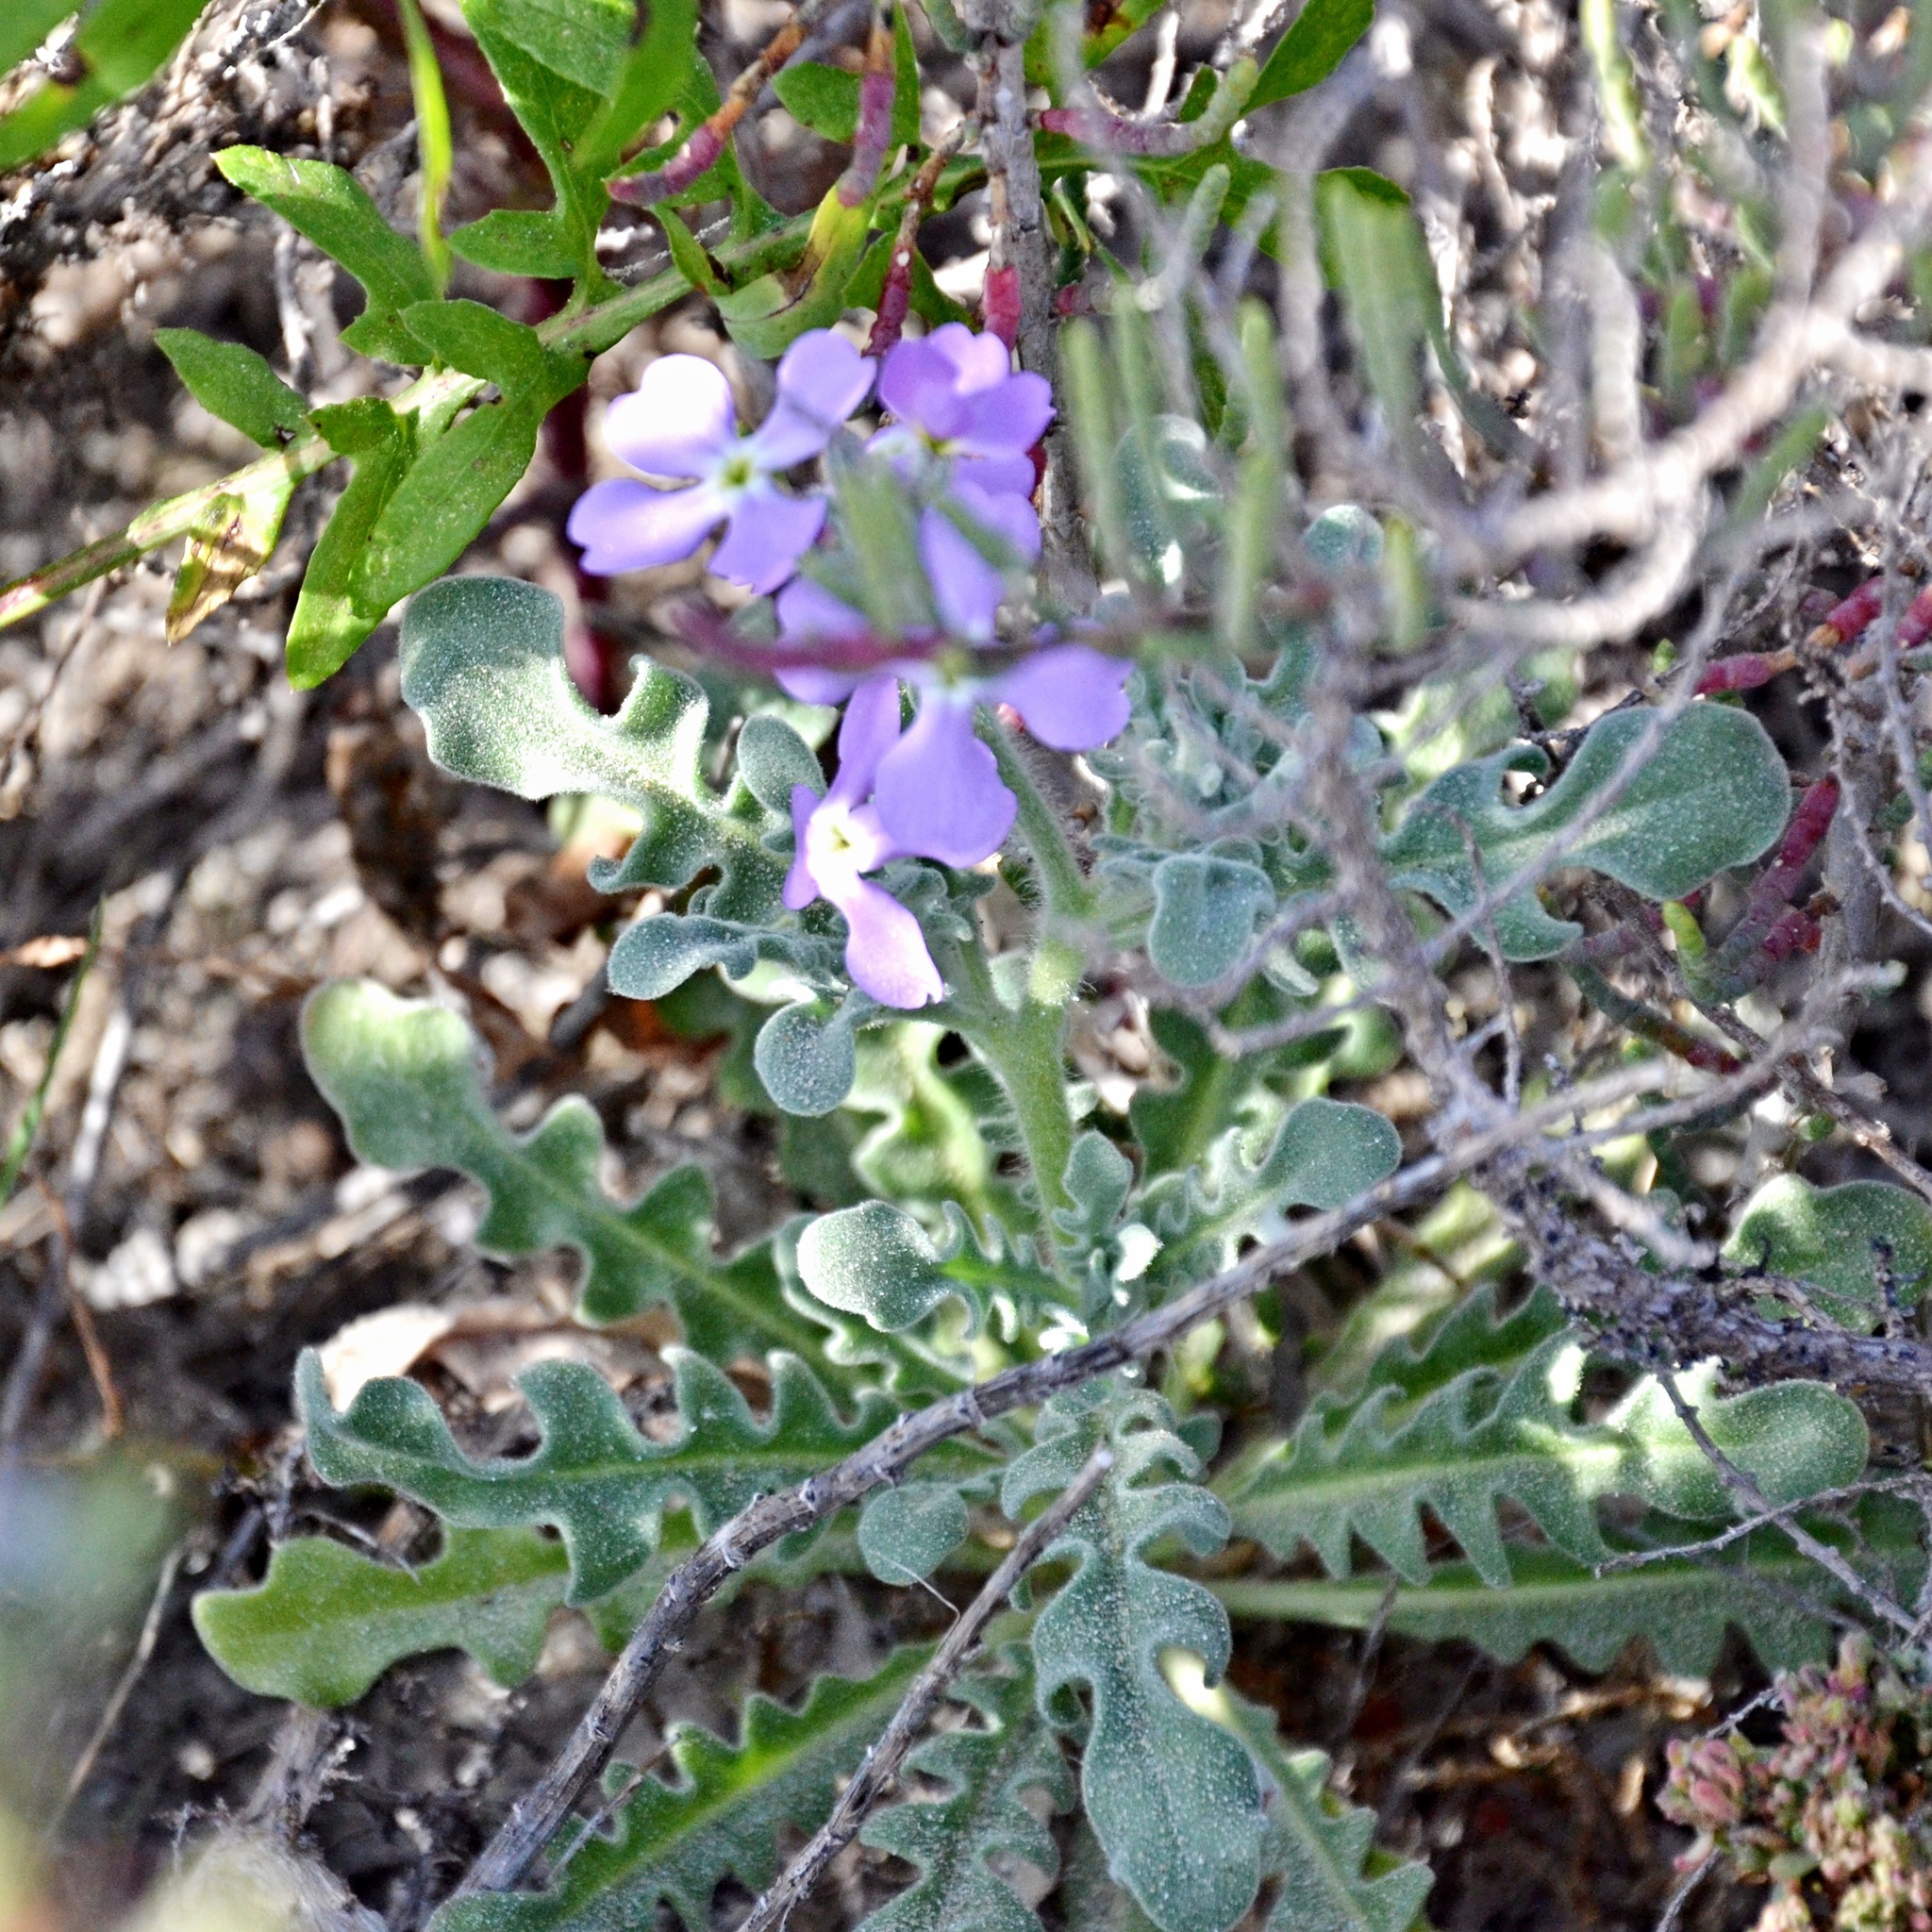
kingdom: Plantae
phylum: Tracheophyta
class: Magnoliopsida
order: Brassicales
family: Brassicaceae
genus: Matthiola
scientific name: Matthiola tricuspidata
